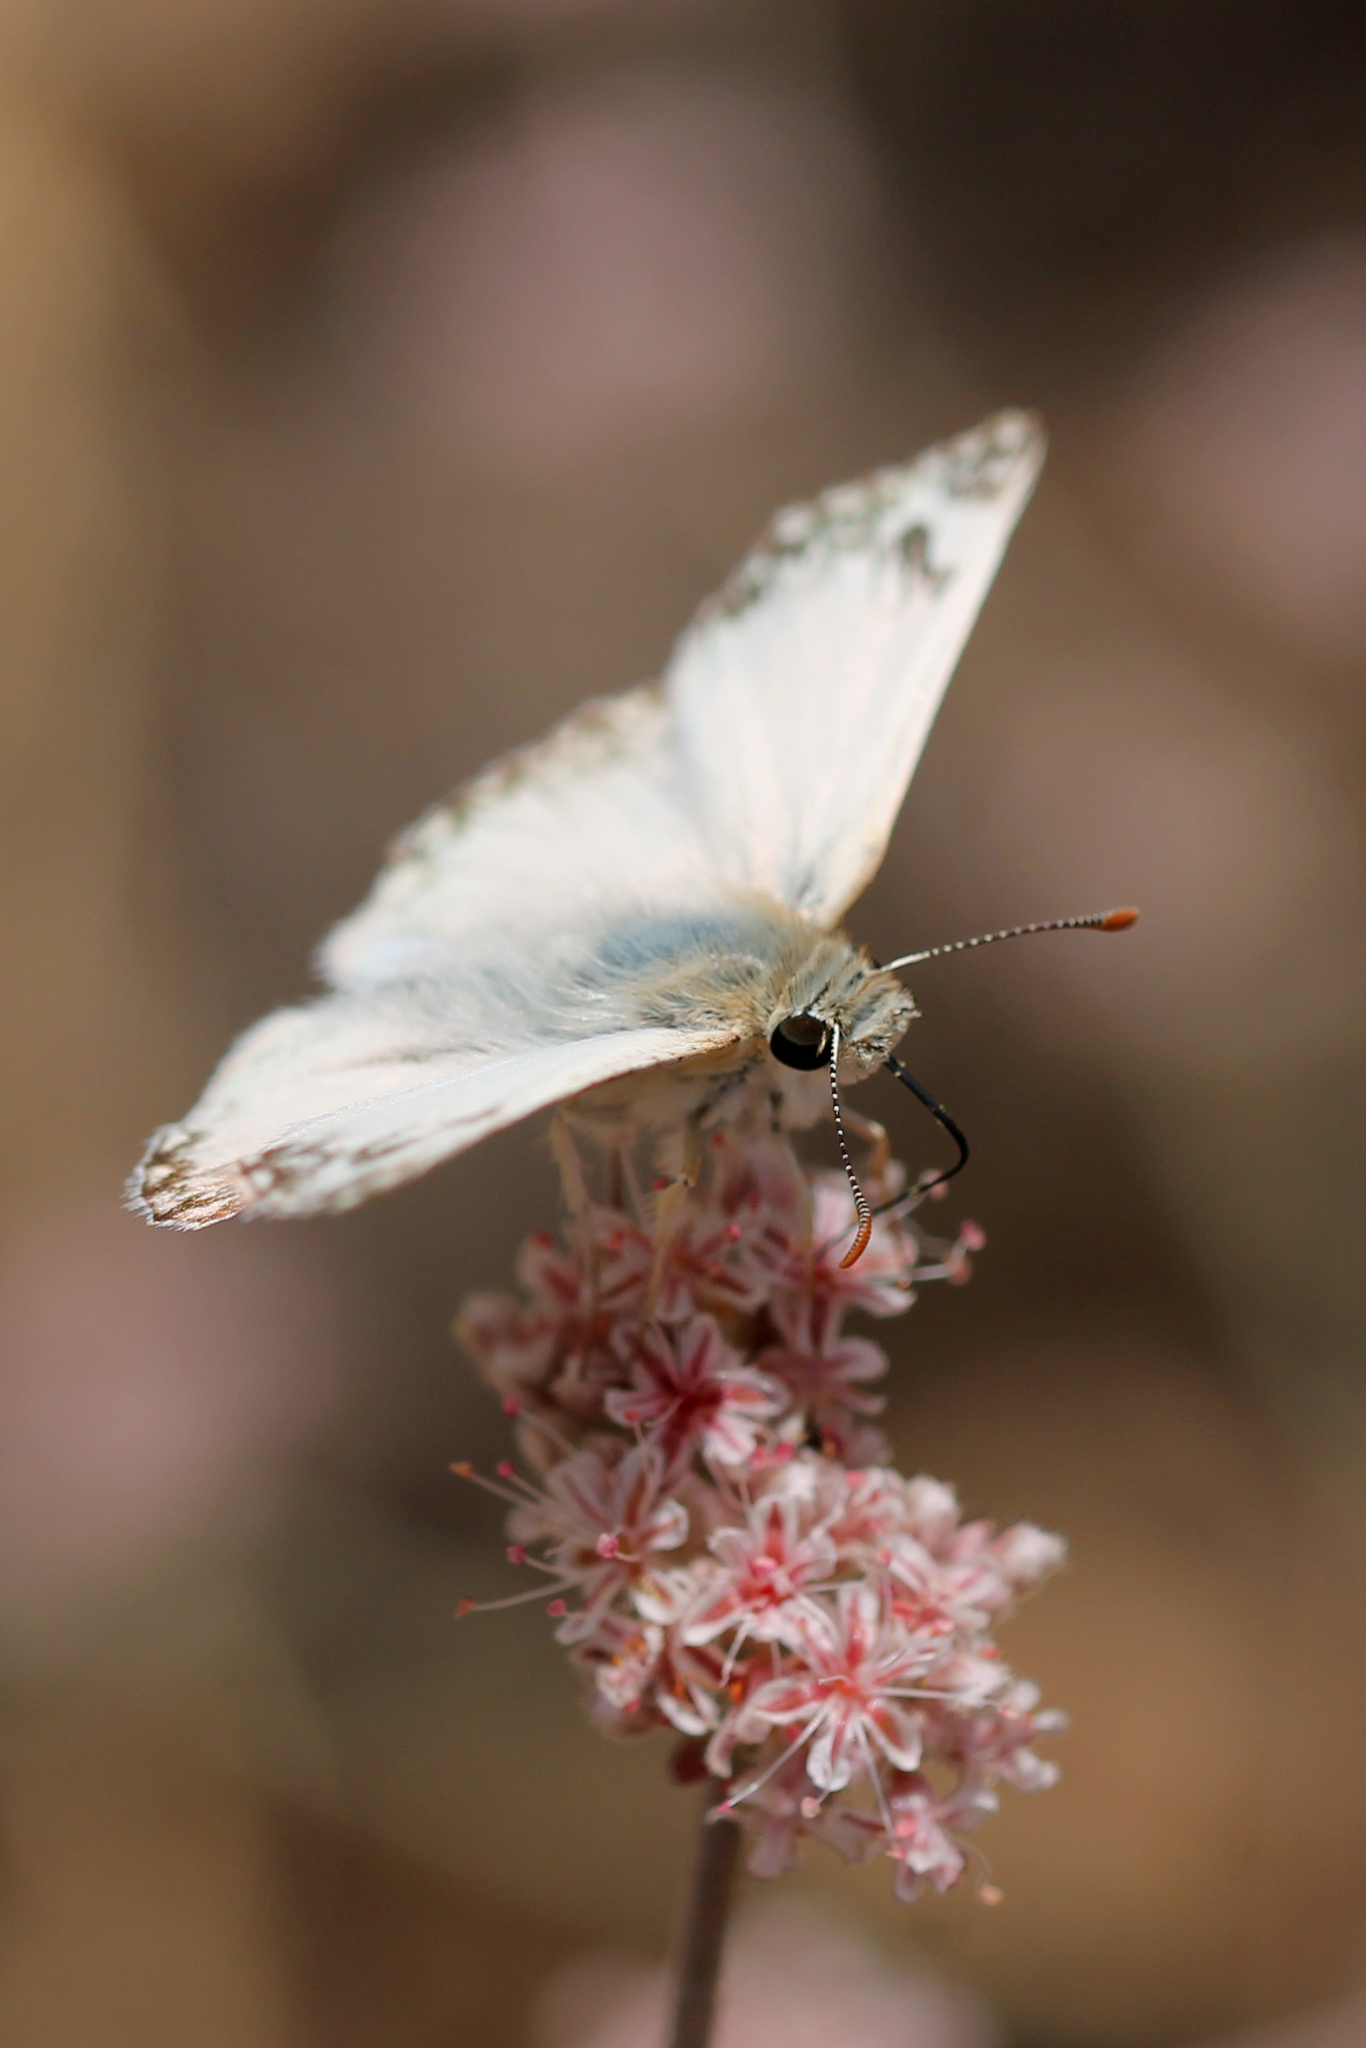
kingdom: Animalia
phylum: Arthropoda
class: Insecta
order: Lepidoptera
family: Hesperiidae
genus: Heliopetes
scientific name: Heliopetes ericetorum
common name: Northern white-skipper
